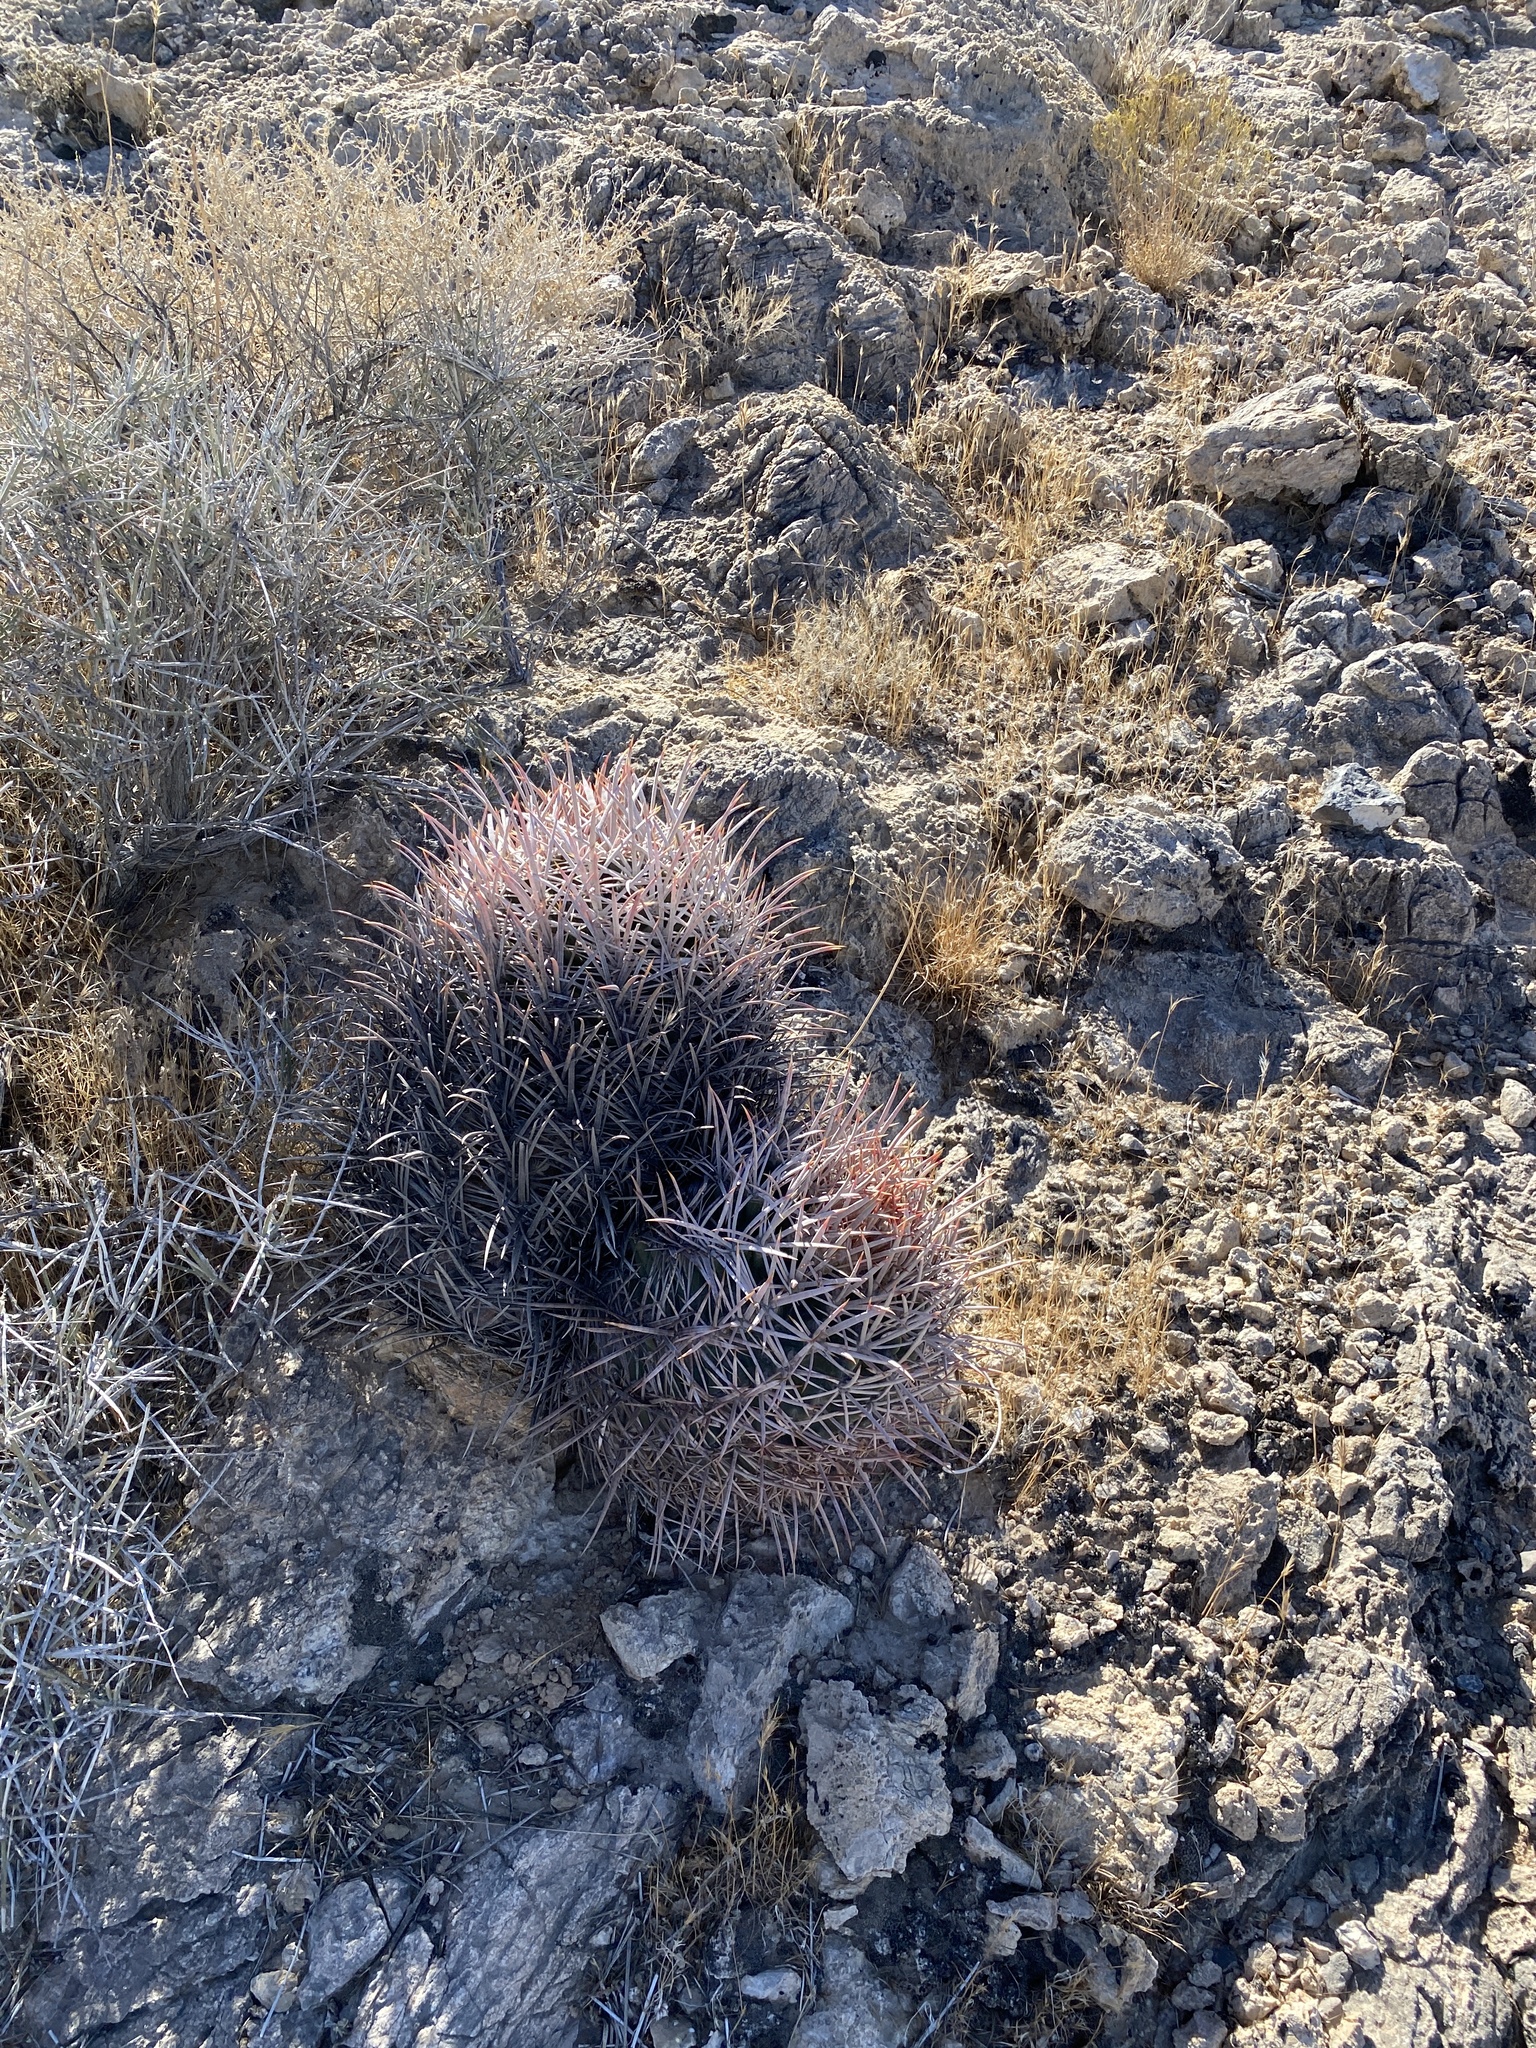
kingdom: Plantae
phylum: Tracheophyta
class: Magnoliopsida
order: Caryophyllales
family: Cactaceae
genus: Echinocactus
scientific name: Echinocactus polycephalus
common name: Cottontop cactus
